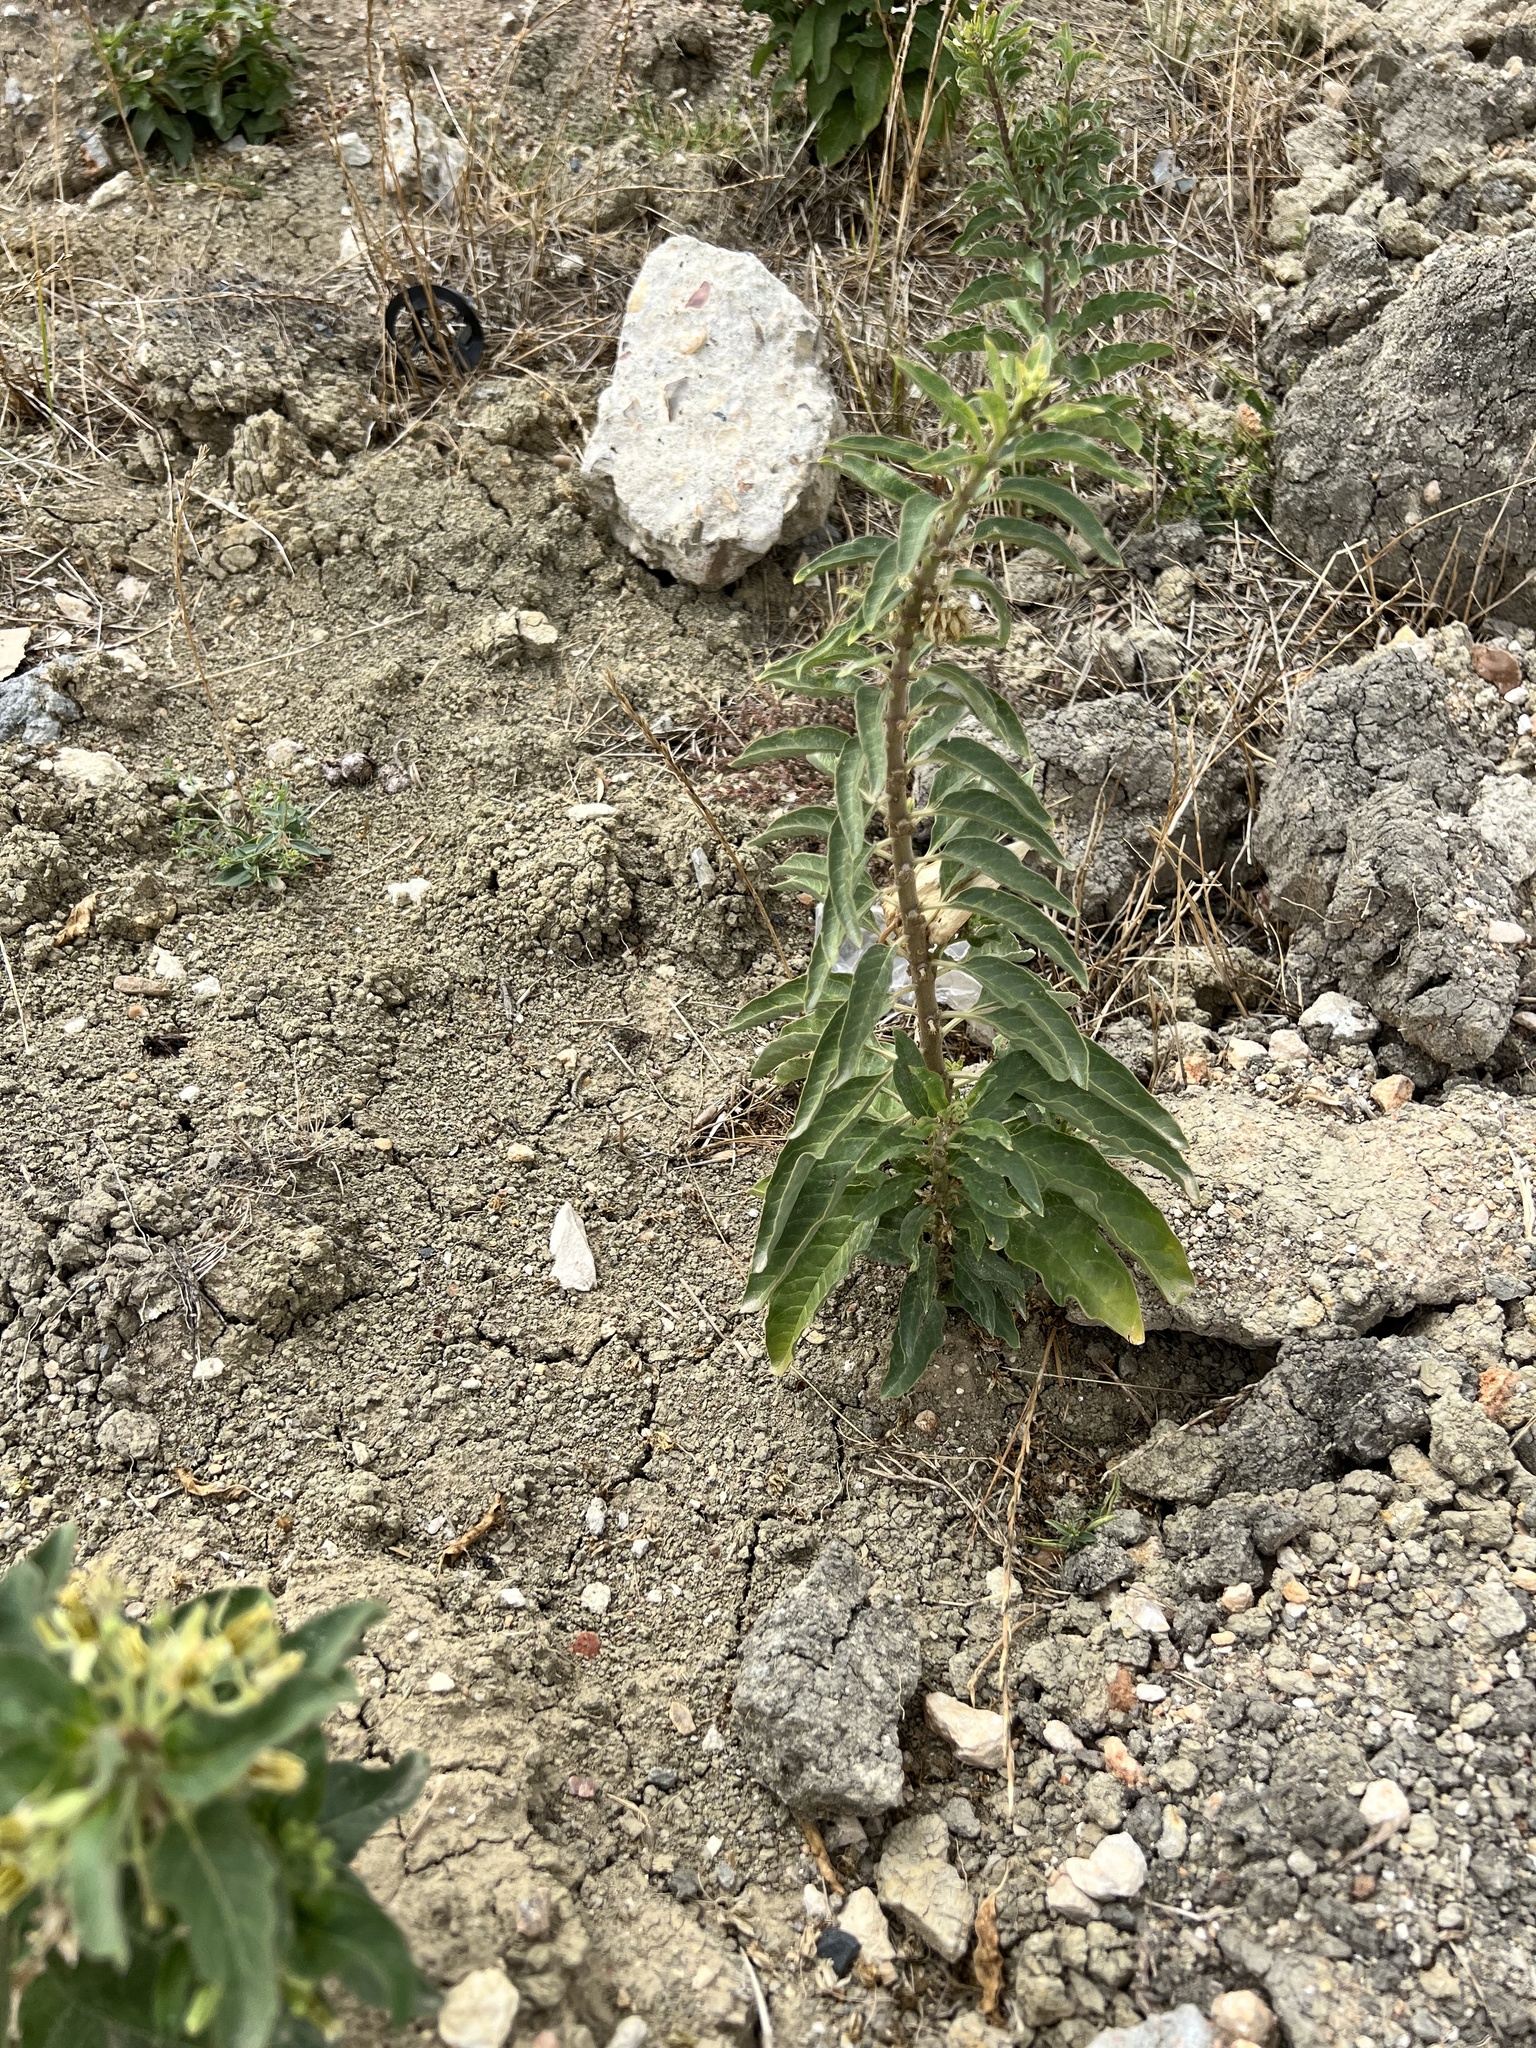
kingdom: Plantae
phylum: Tracheophyta
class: Magnoliopsida
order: Gentianales
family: Apocynaceae
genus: Asclepias
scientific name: Asclepias oenotheroides
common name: Zizotes milkweed
